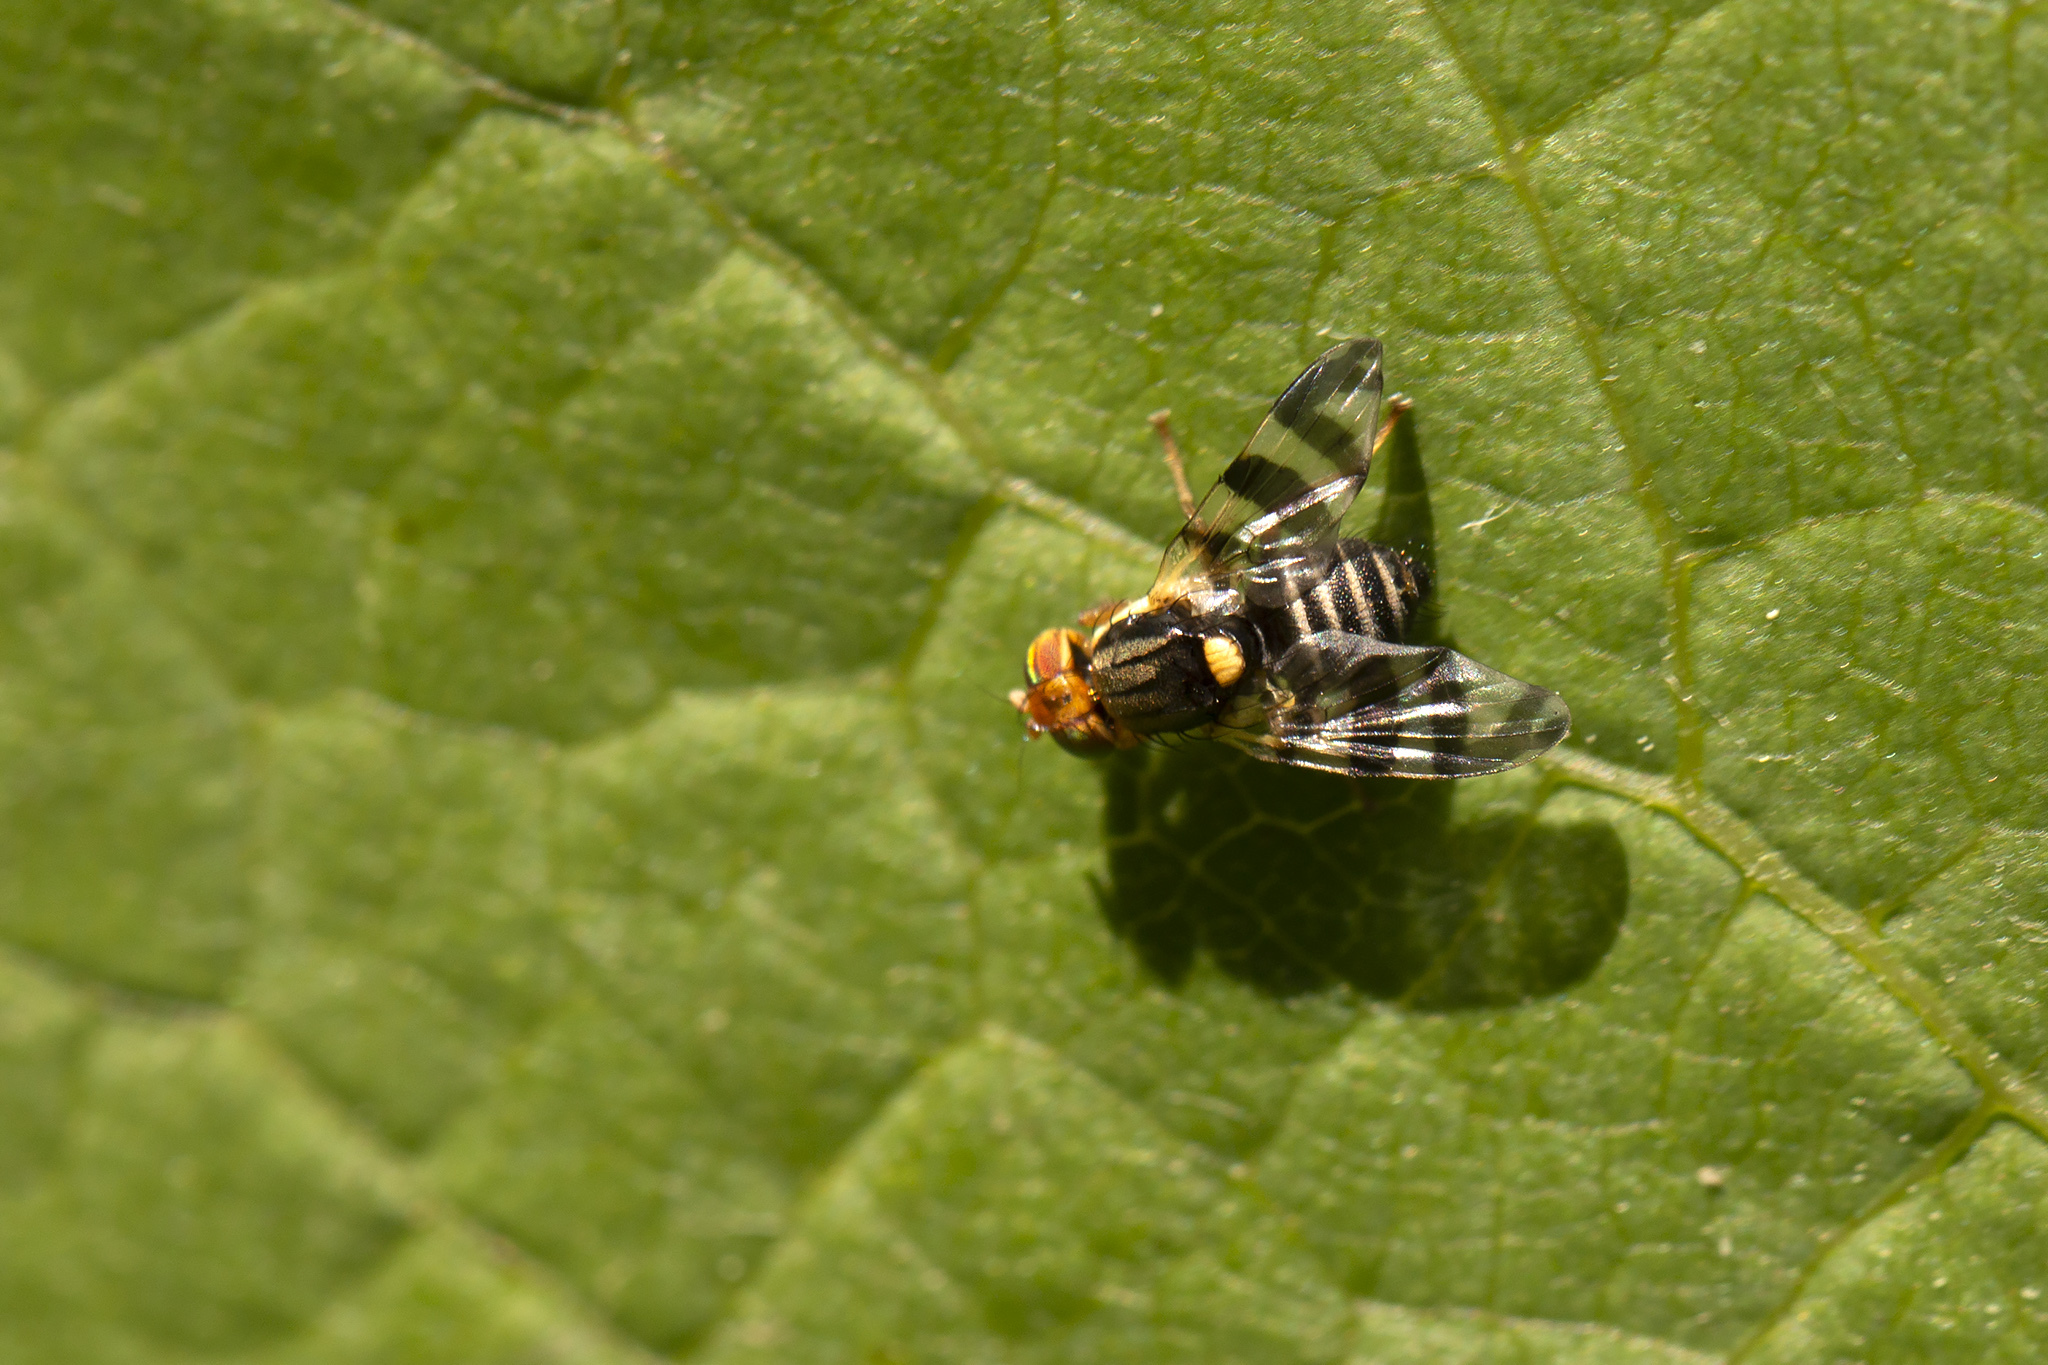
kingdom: Animalia
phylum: Arthropoda
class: Insecta
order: Diptera
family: Tephritidae
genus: Rhagoletis
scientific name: Rhagoletis cingulata
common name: North american cherry fruit fly
